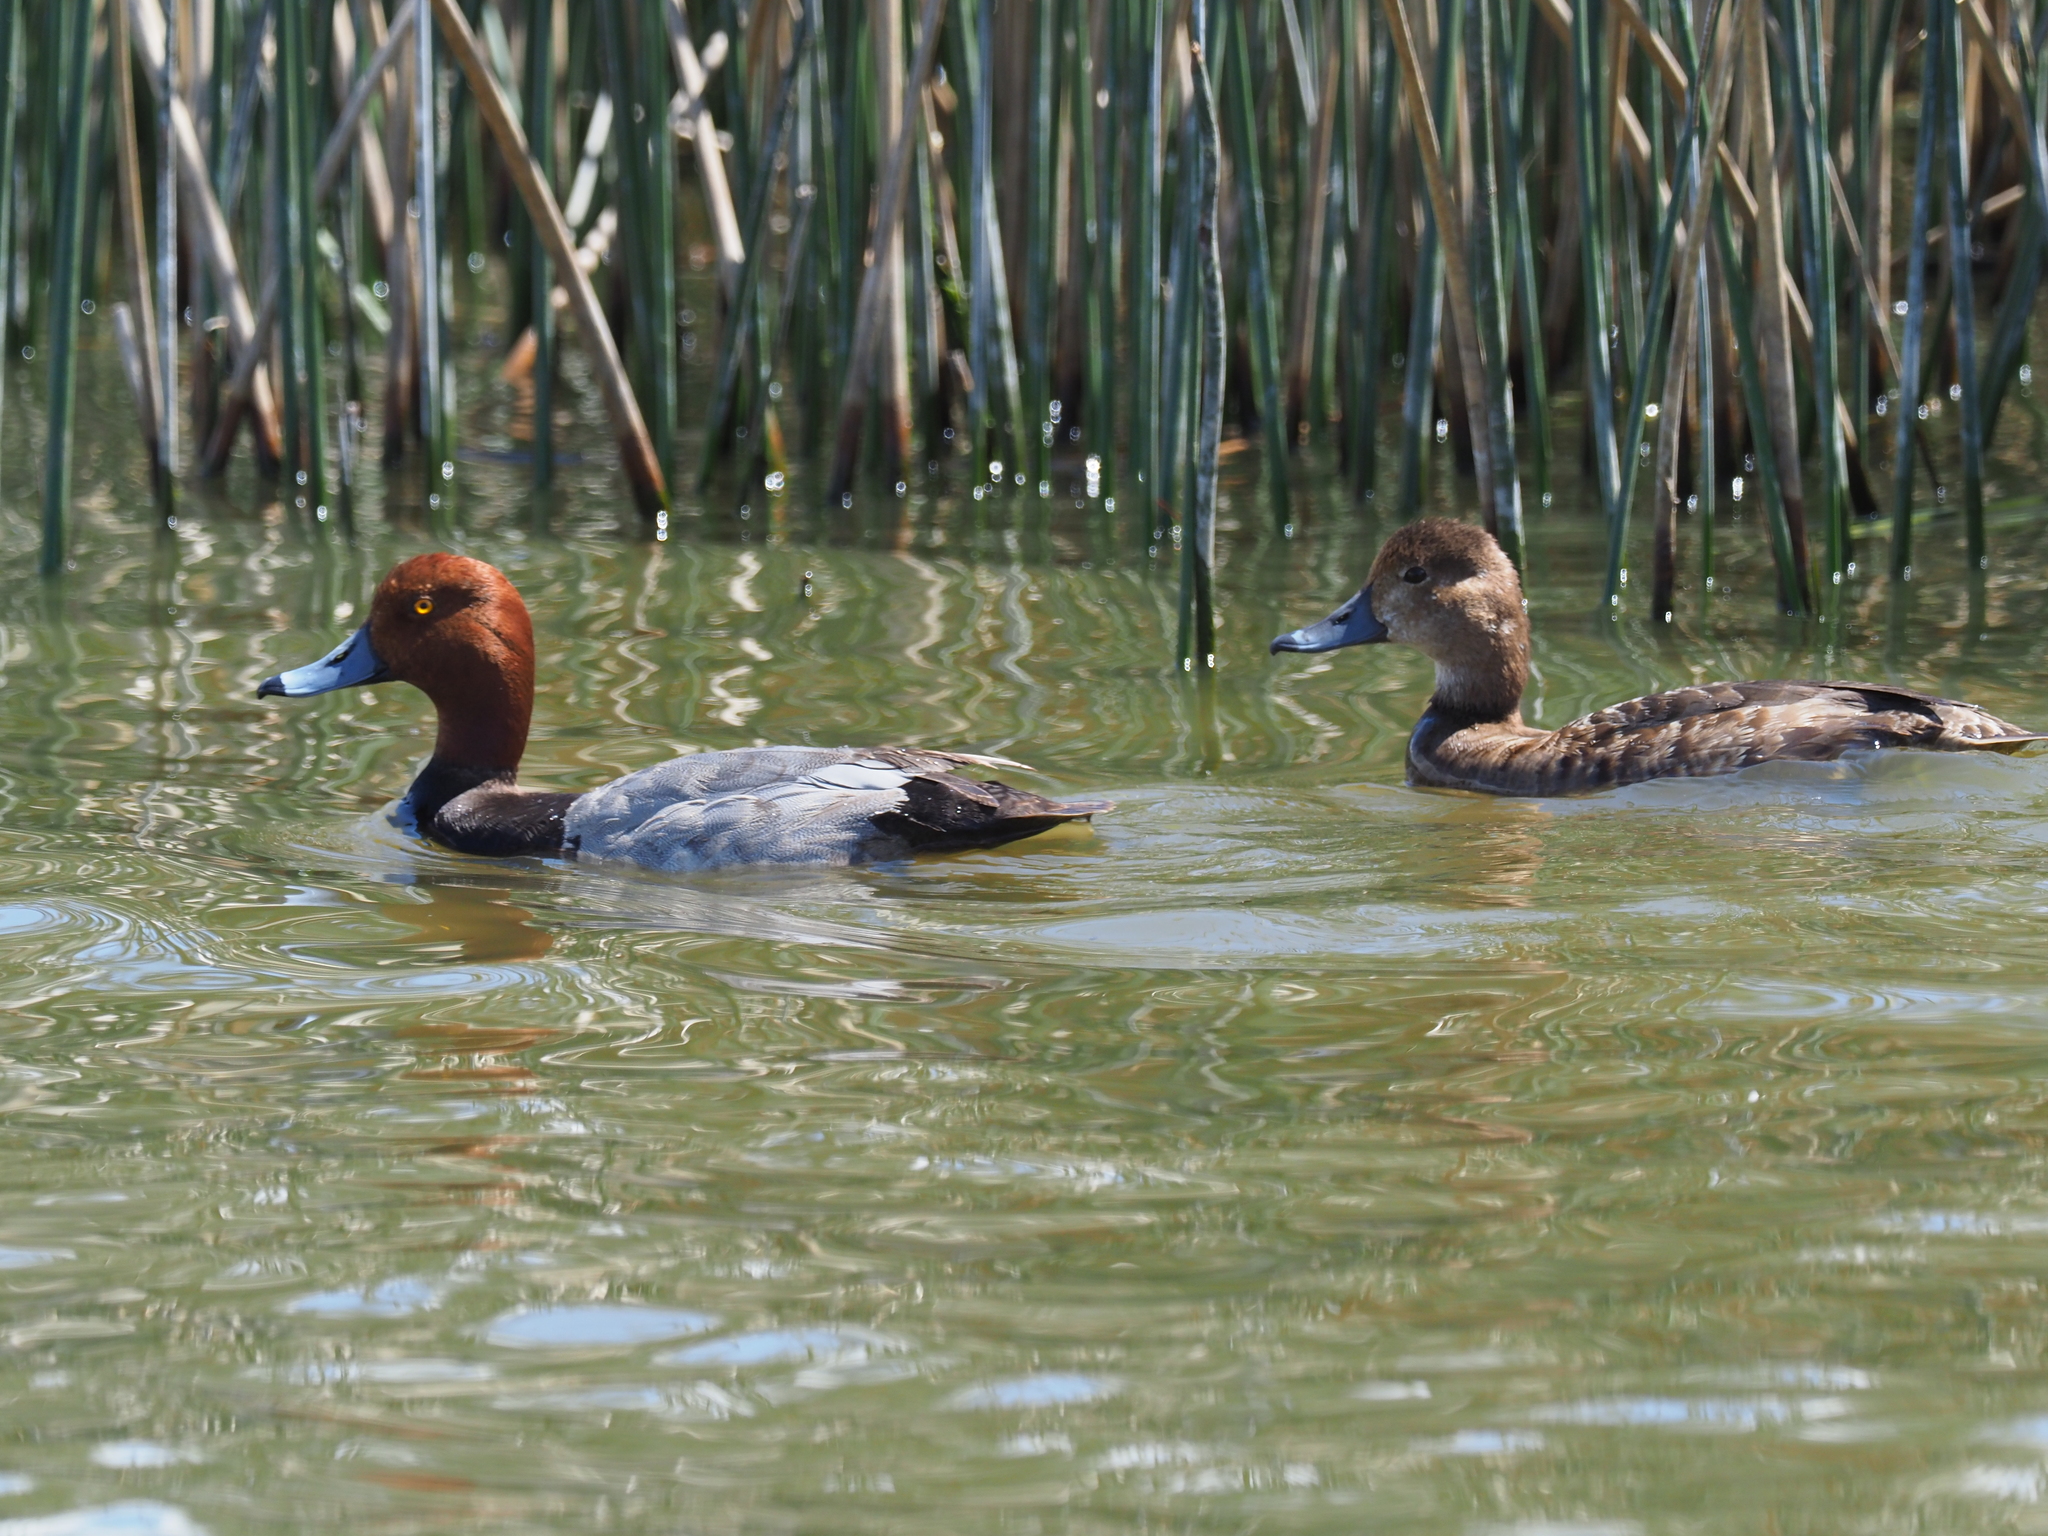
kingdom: Animalia
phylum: Chordata
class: Aves
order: Anseriformes
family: Anatidae
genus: Aythya
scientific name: Aythya americana
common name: Redhead
